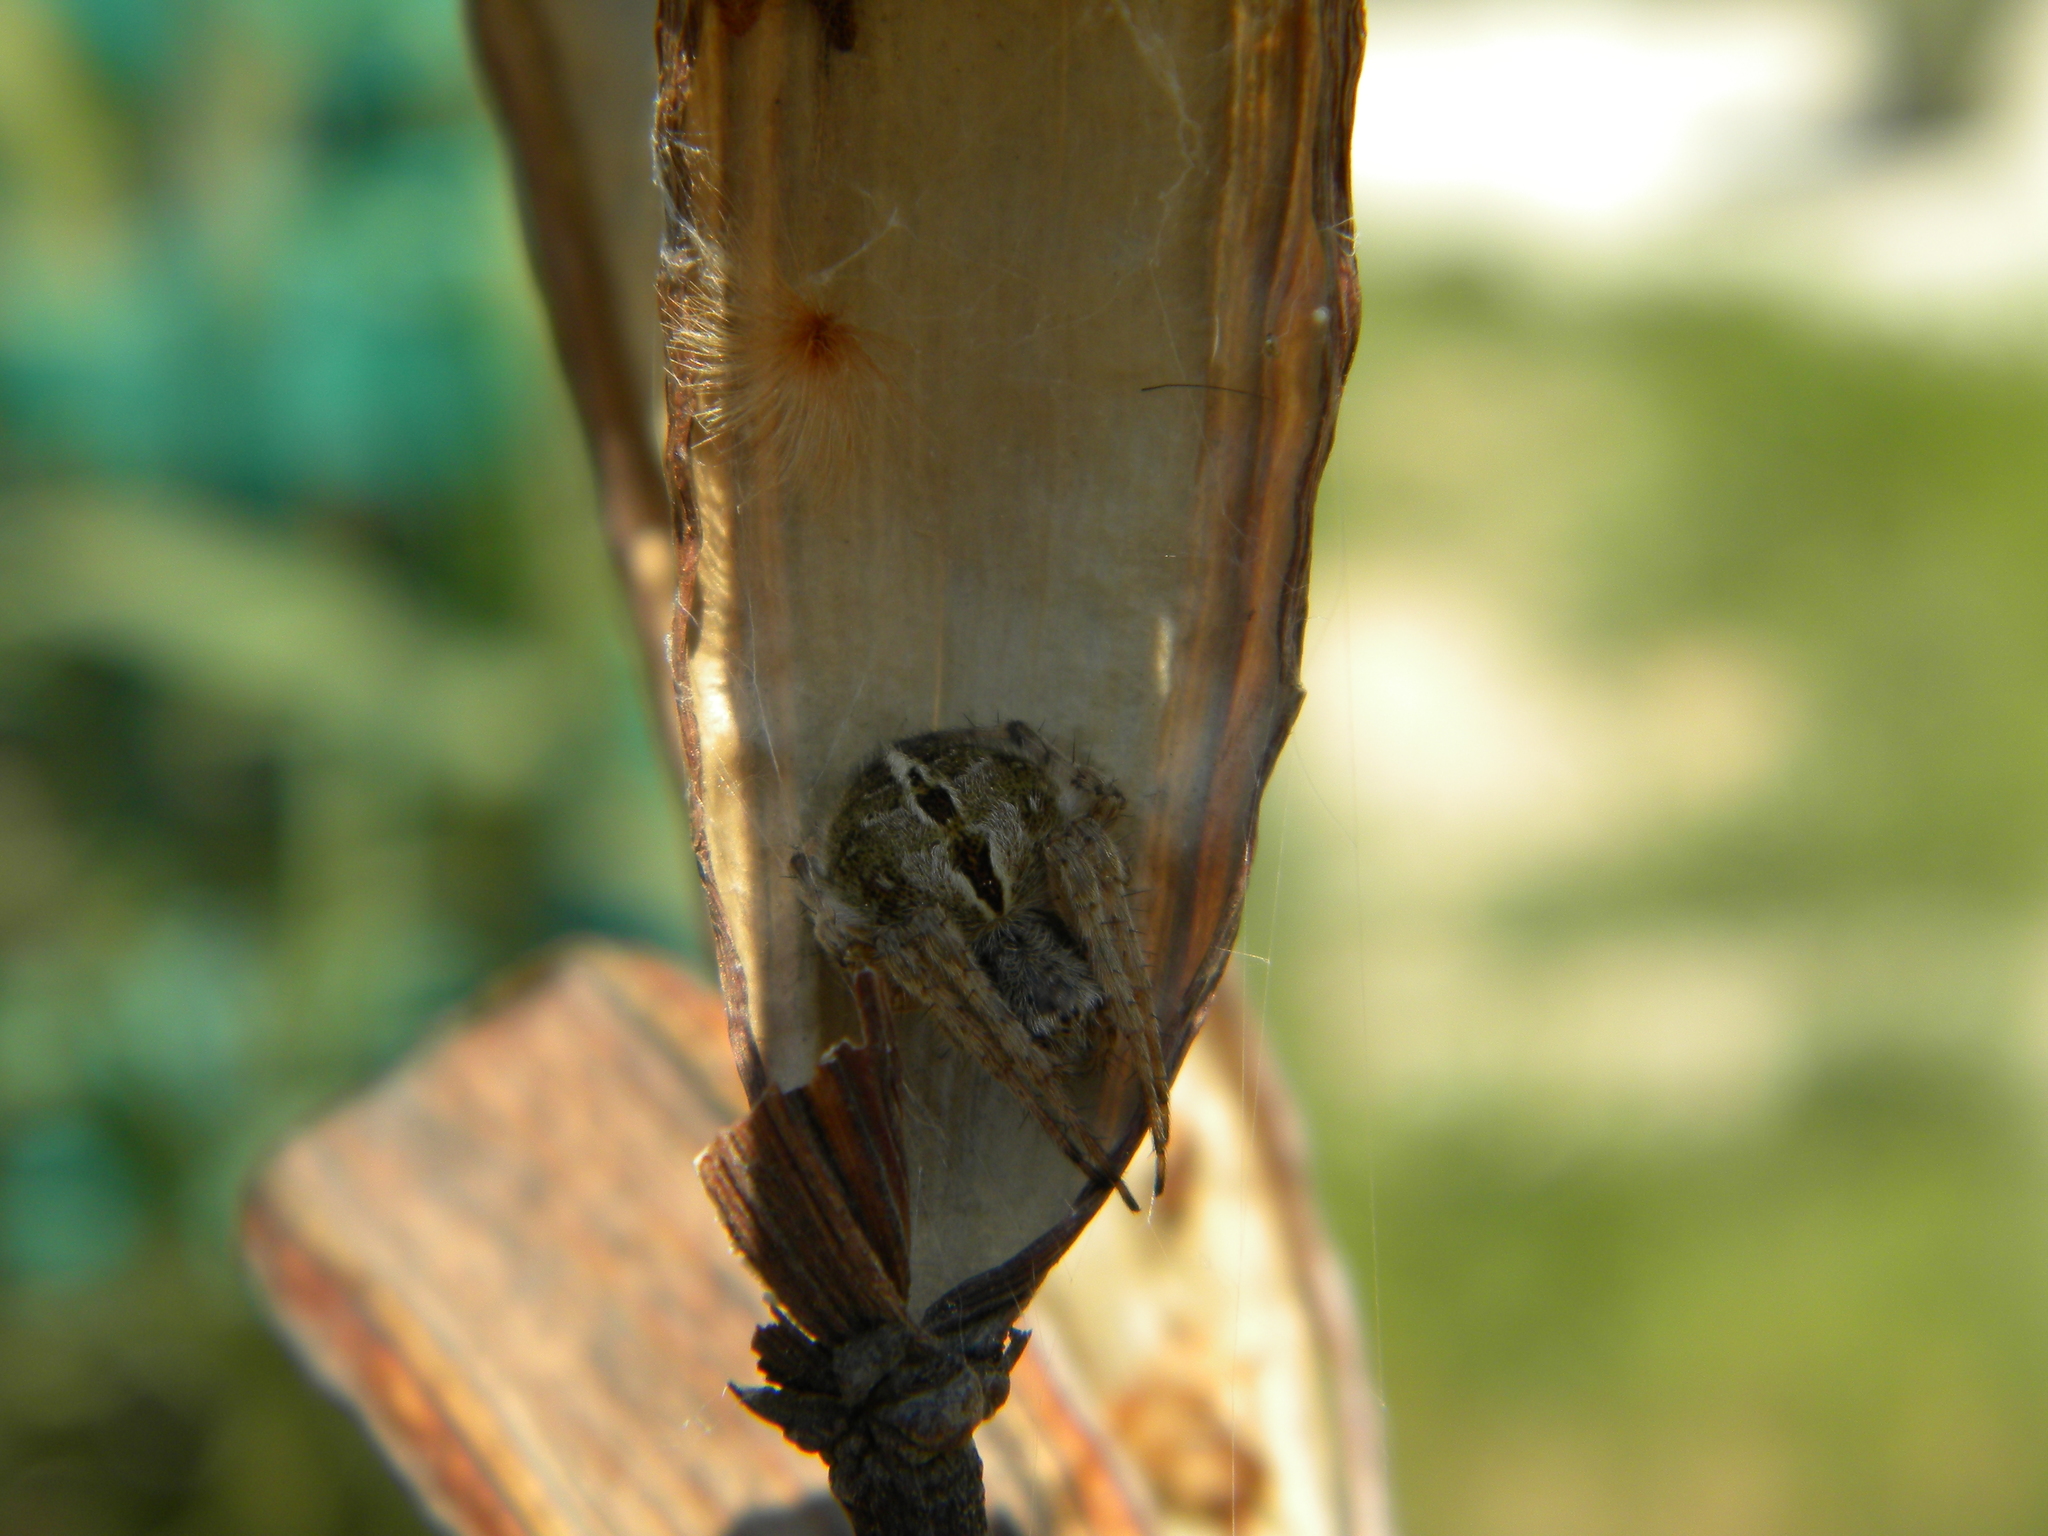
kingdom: Animalia
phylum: Arthropoda
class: Arachnida
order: Araneae
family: Araneidae
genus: Agalenatea
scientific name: Agalenatea redii
